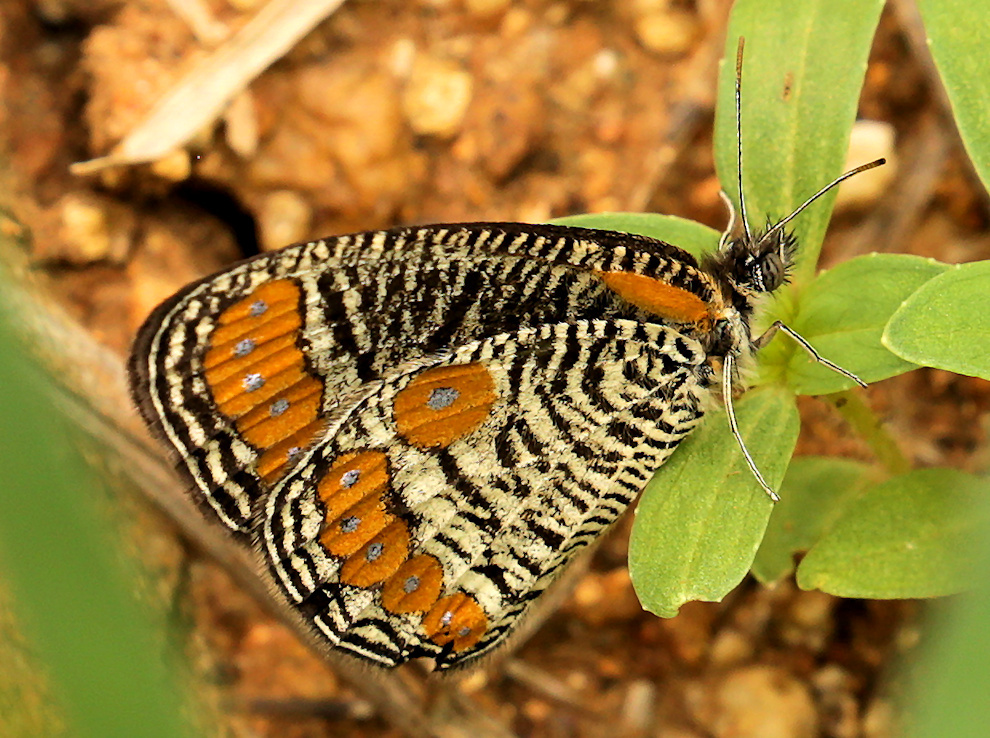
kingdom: Animalia
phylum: Arthropoda
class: Insecta
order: Lepidoptera
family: Nymphalidae
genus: Physcaeneura
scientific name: Physcaeneura panda
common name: Dark-webbed ringlet
